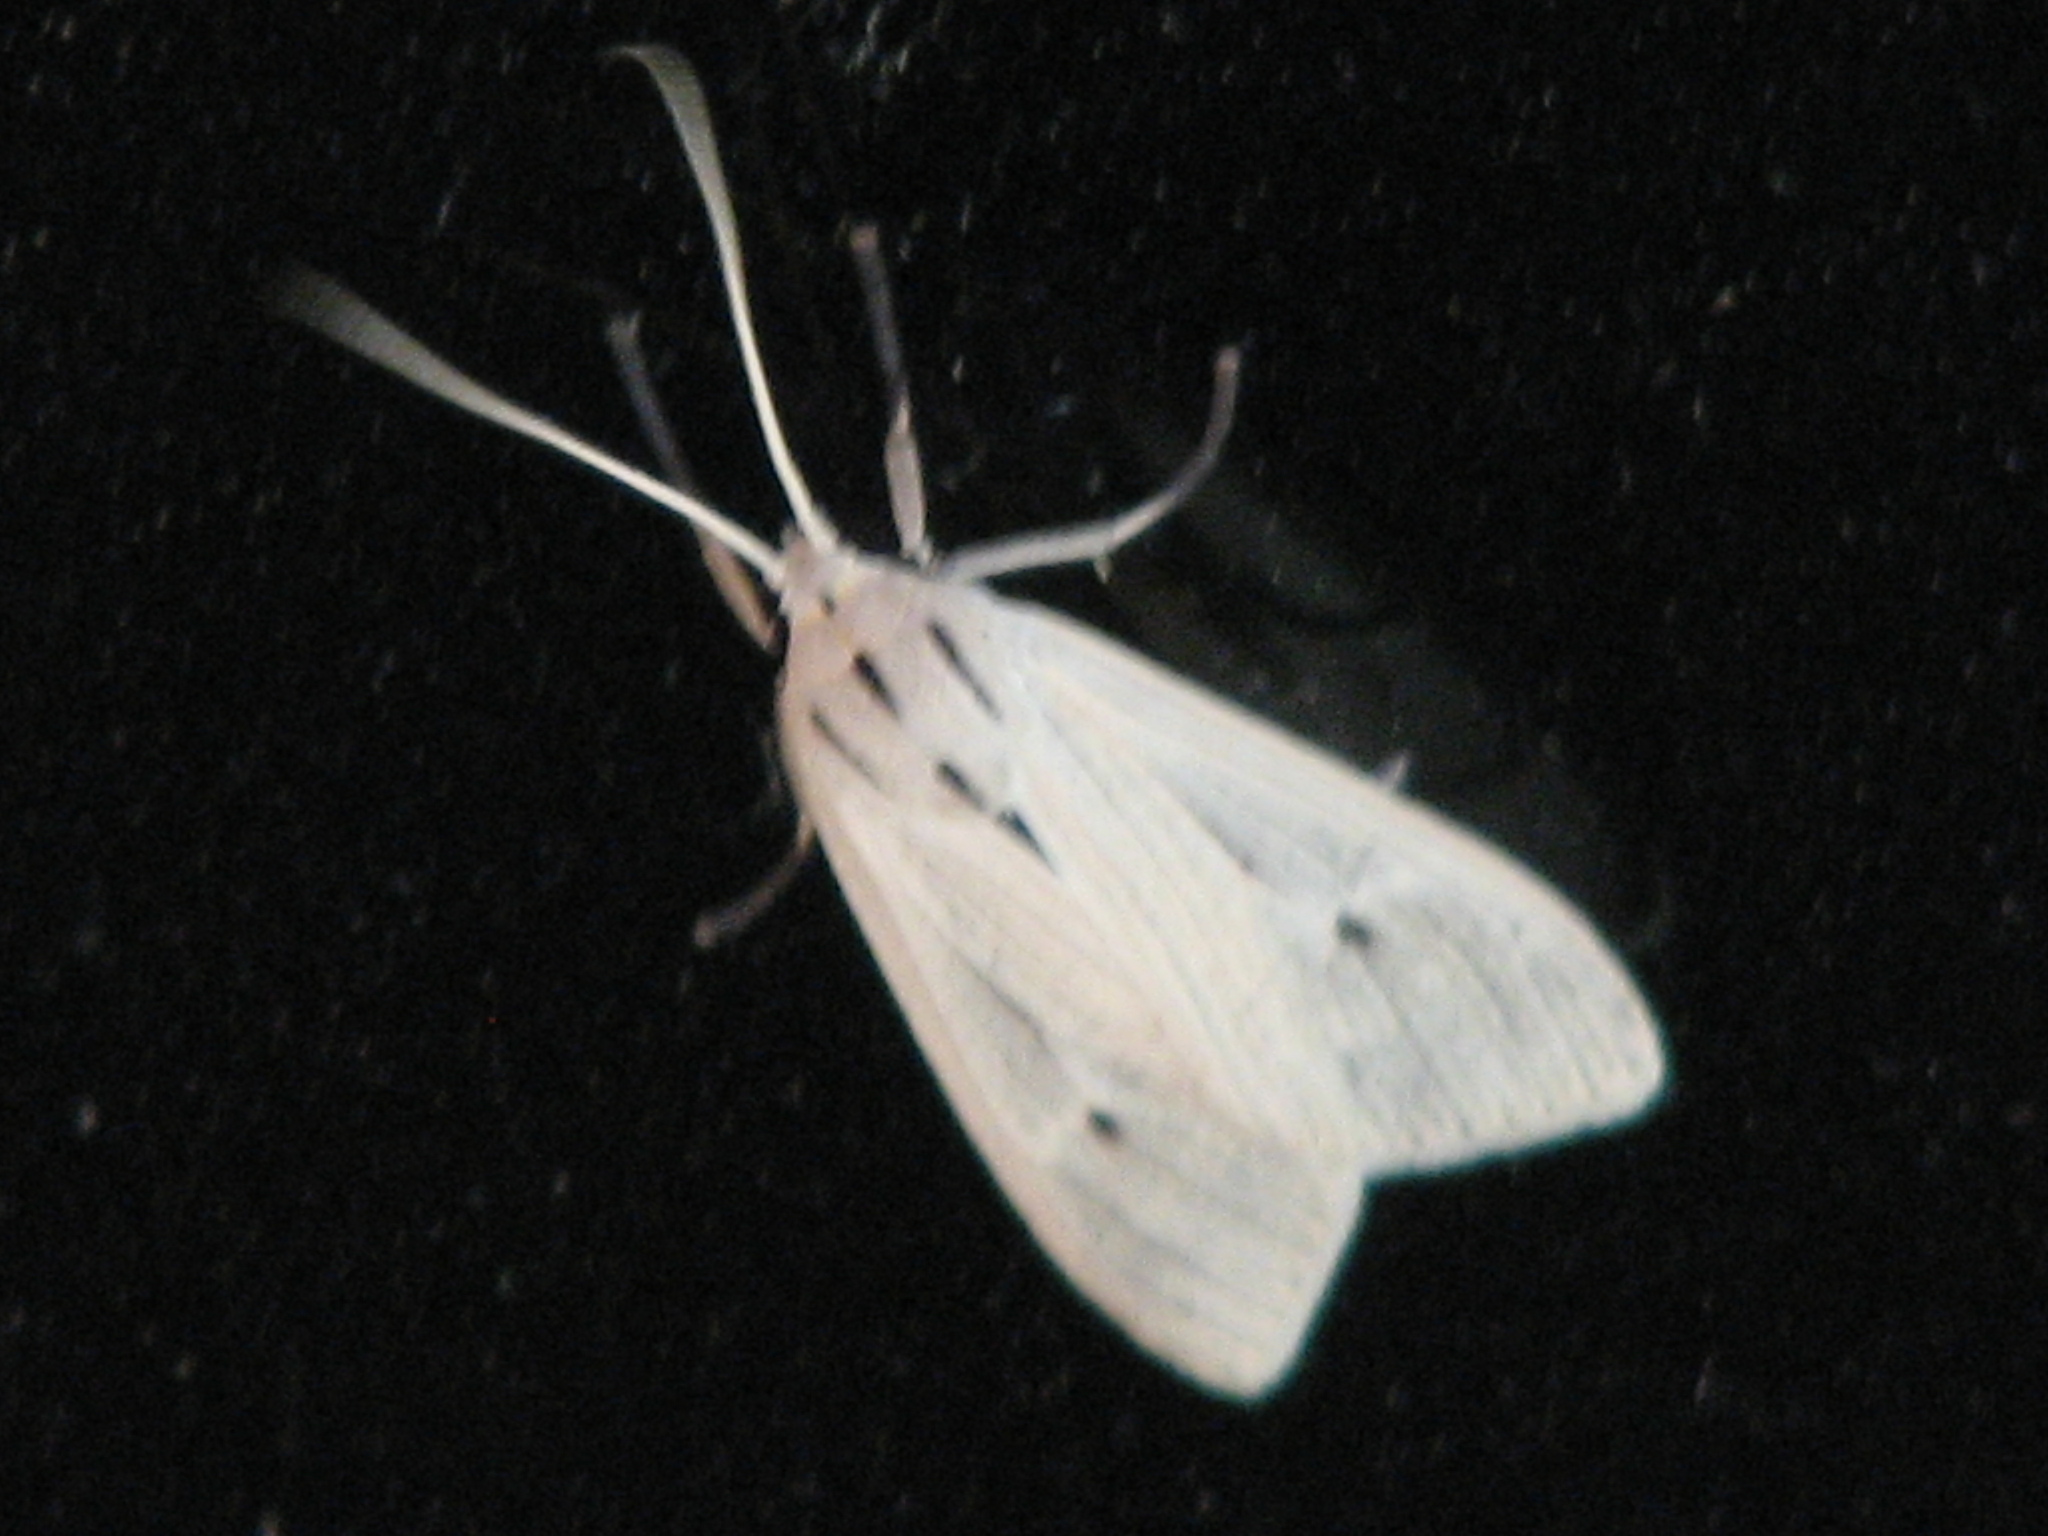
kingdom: Animalia
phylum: Arthropoda
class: Insecta
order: Lepidoptera
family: Erebidae
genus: Arctagyrta
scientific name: Arctagyrta Agaraea semivitrea
